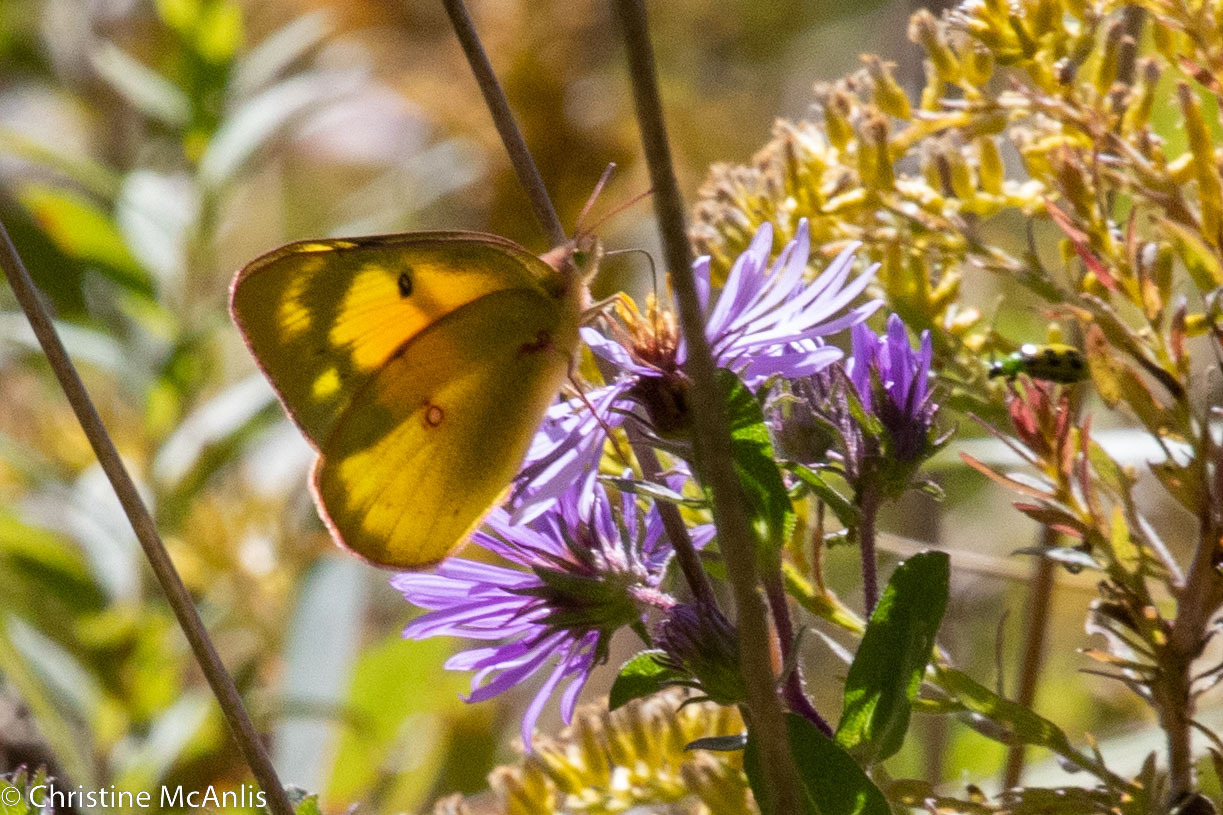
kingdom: Animalia
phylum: Arthropoda
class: Insecta
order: Lepidoptera
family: Pieridae
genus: Colias
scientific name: Colias eurytheme
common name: Alfalfa butterfly
